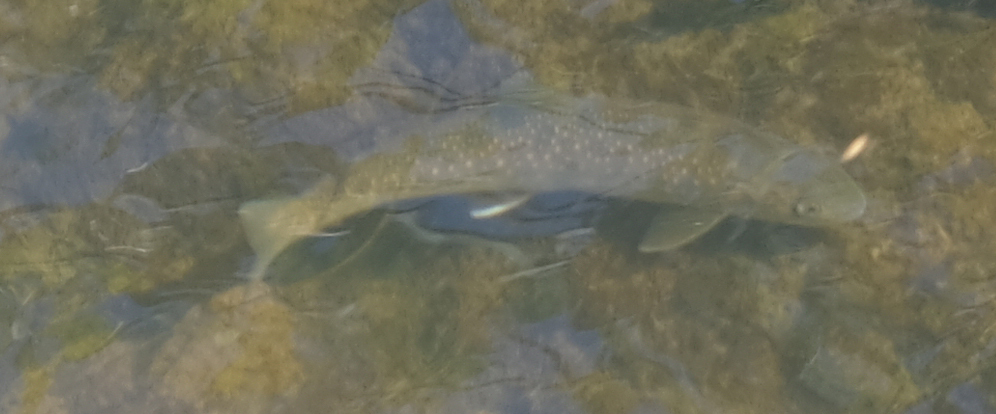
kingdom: Animalia
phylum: Chordata
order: Salmoniformes
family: Salmonidae
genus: Salvelinus
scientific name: Salvelinus malma
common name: Dolly varden charr
